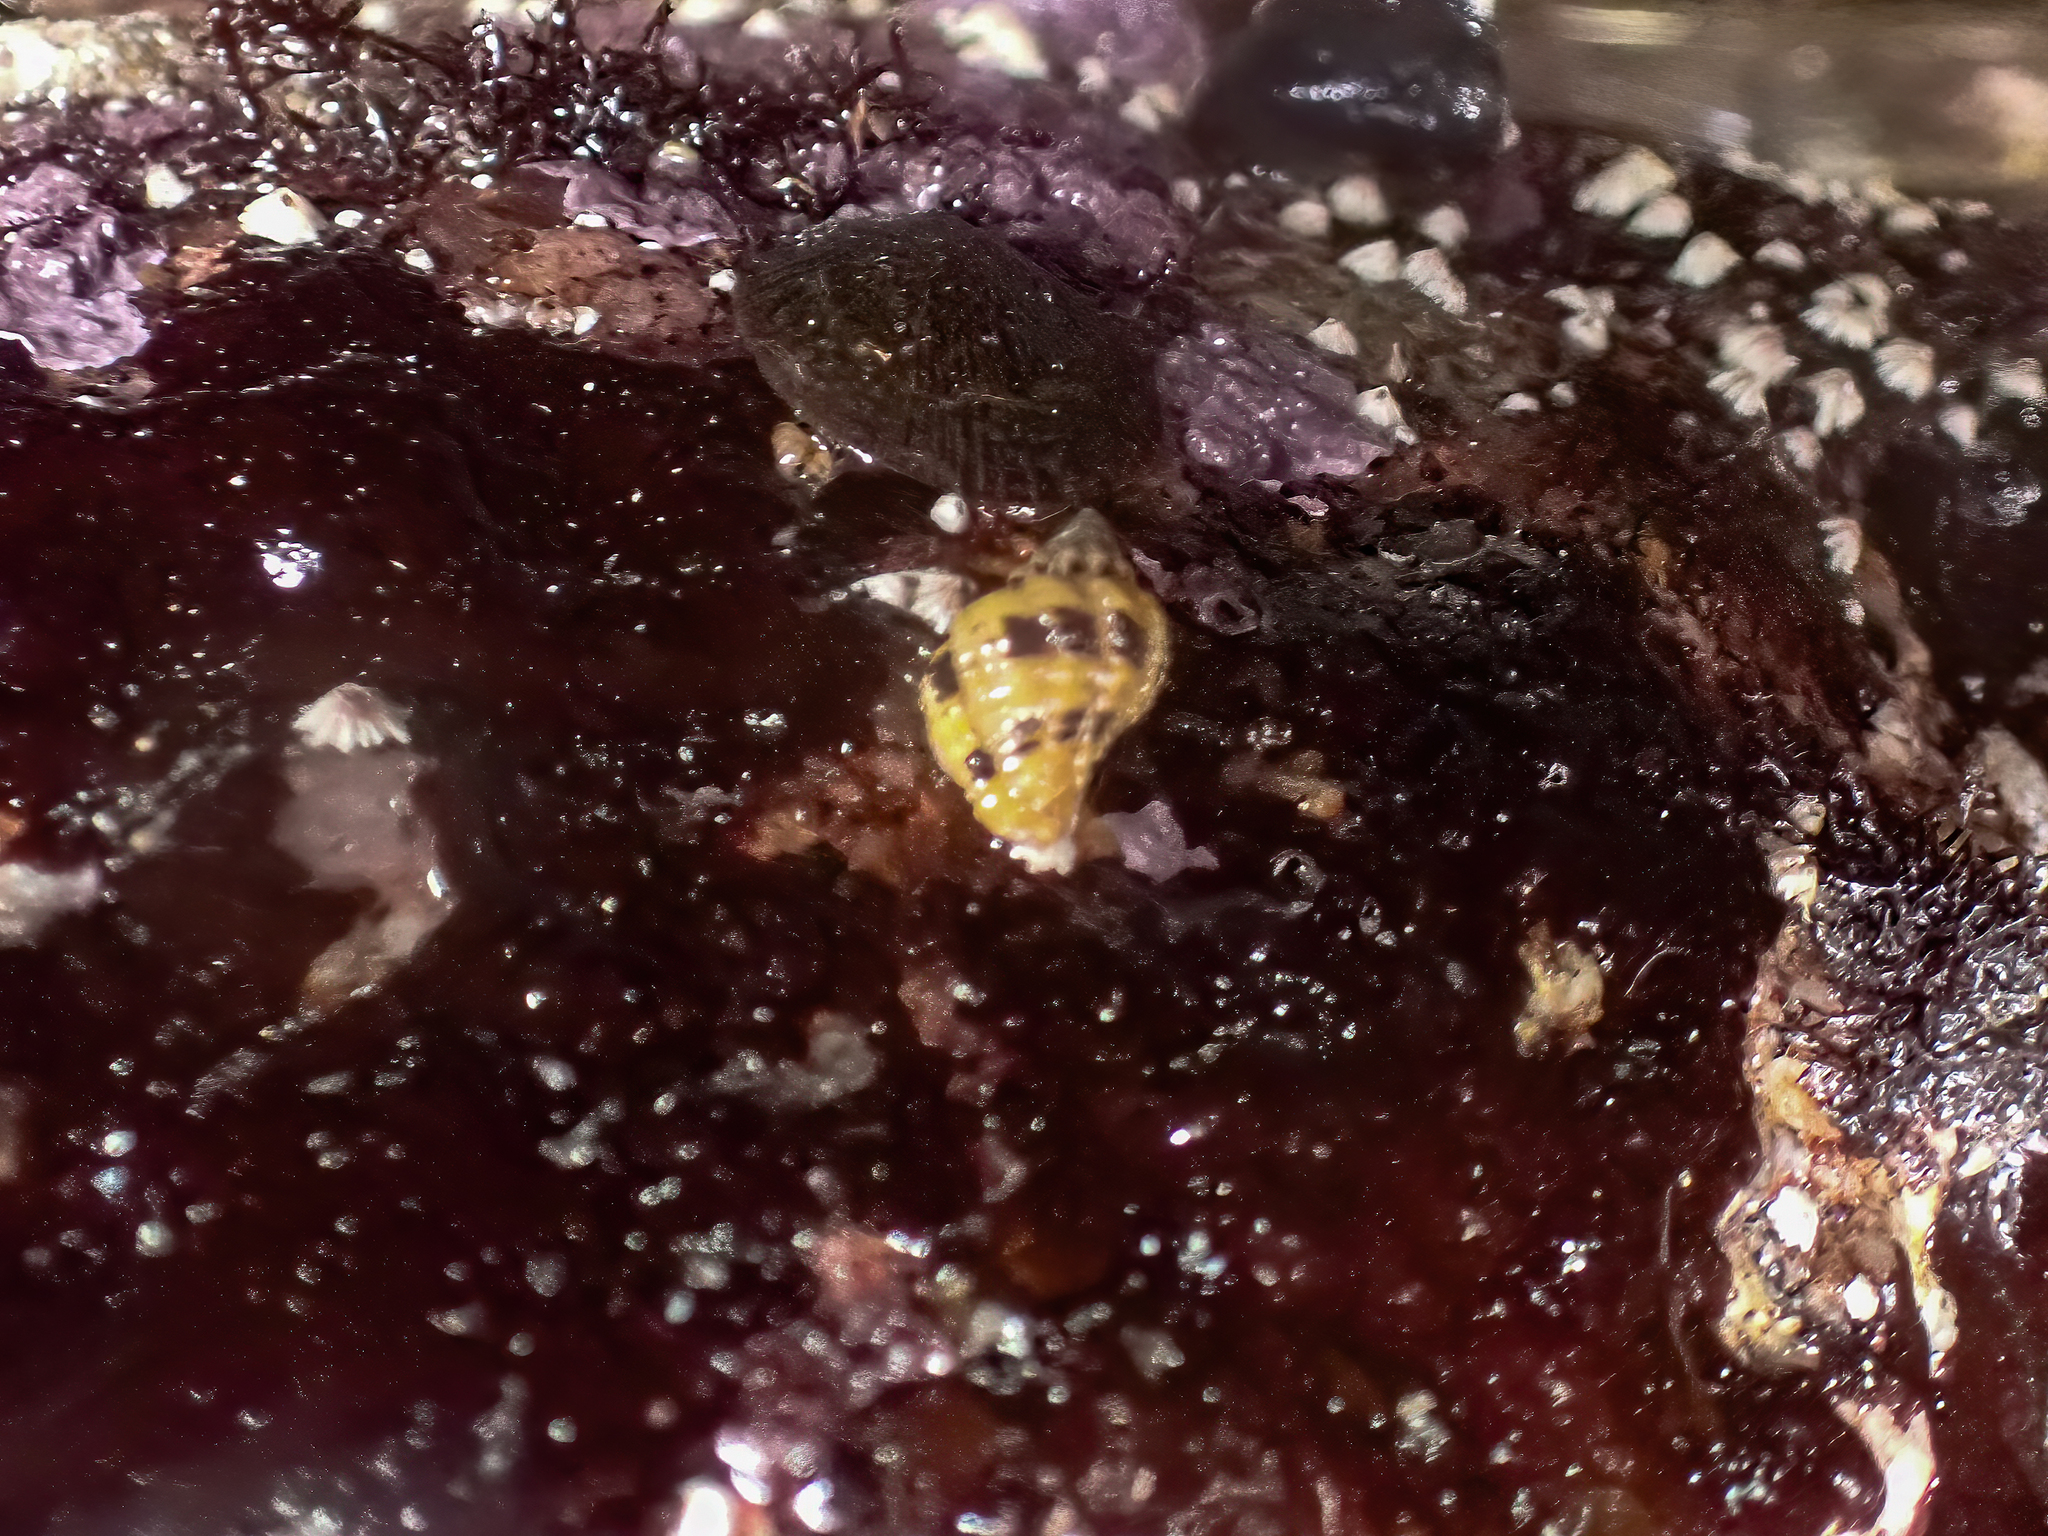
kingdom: Animalia
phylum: Mollusca
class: Gastropoda
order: Neogastropoda
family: Muricidae
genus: Paciocinebrina
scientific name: Paciocinebrina circumtexta
